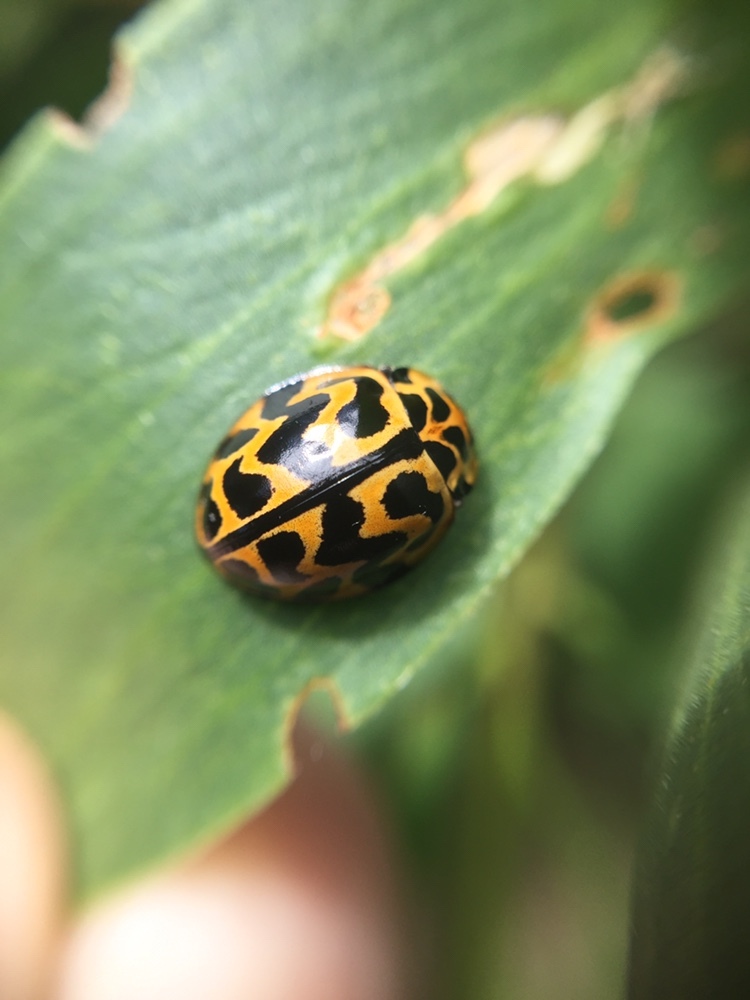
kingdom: Animalia
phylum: Arthropoda
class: Insecta
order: Coleoptera
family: Coccinellidae
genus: Cleobora
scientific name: Cleobora
